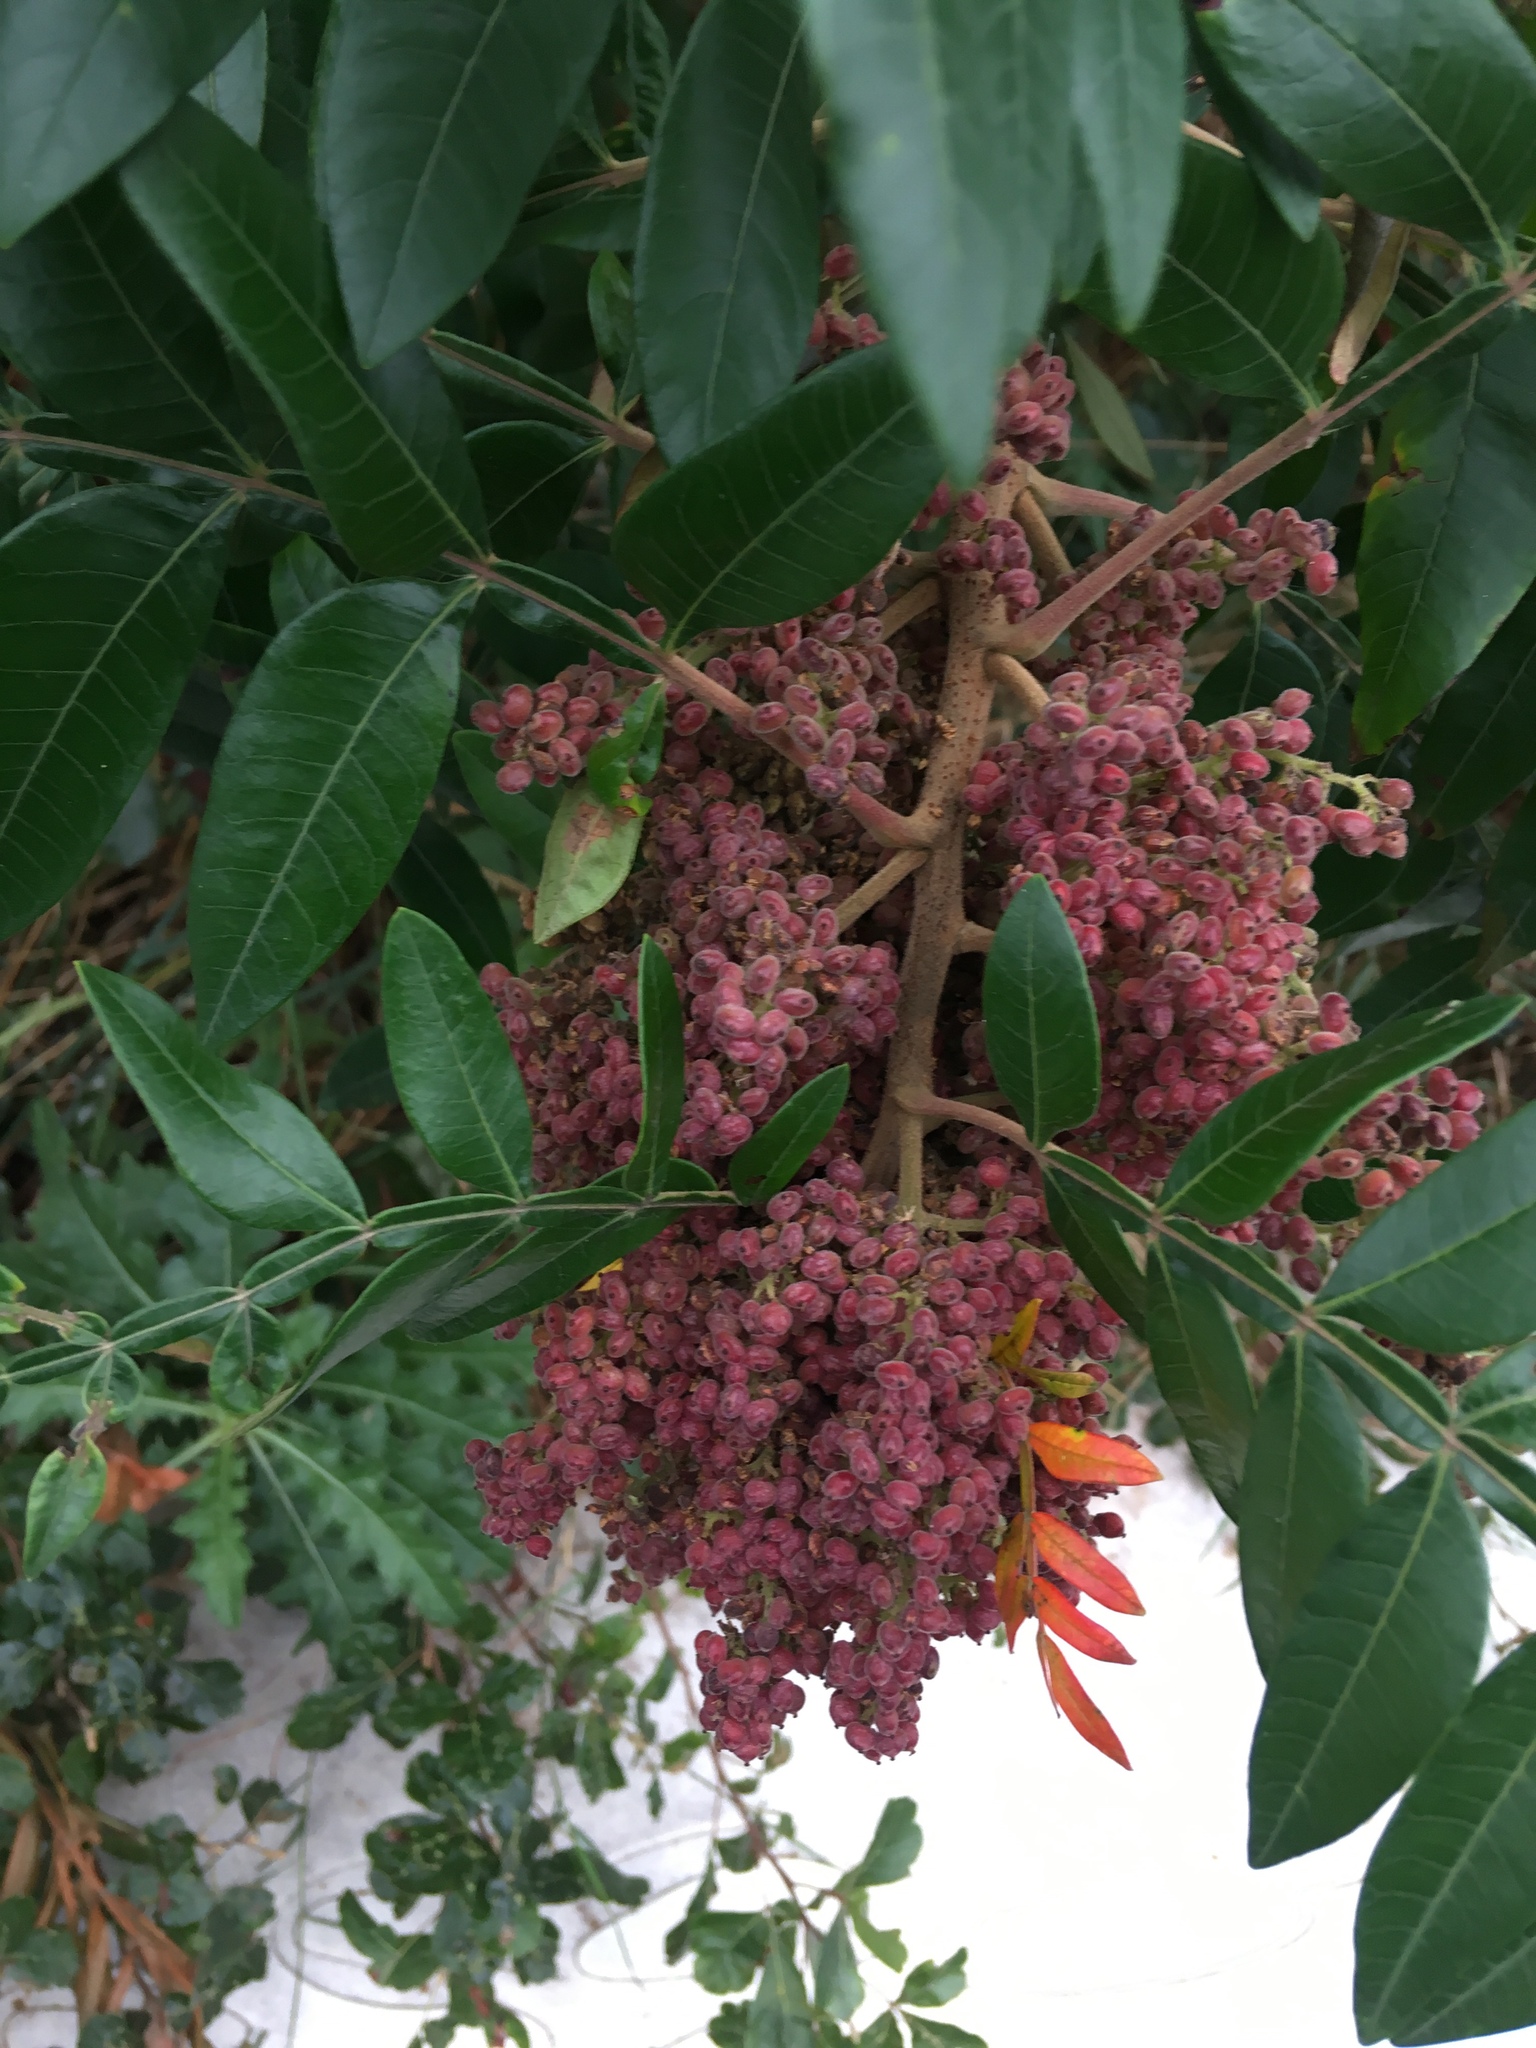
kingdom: Plantae
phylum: Tracheophyta
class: Magnoliopsida
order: Sapindales
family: Anacardiaceae
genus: Rhus
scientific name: Rhus copallina
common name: Shining sumac
